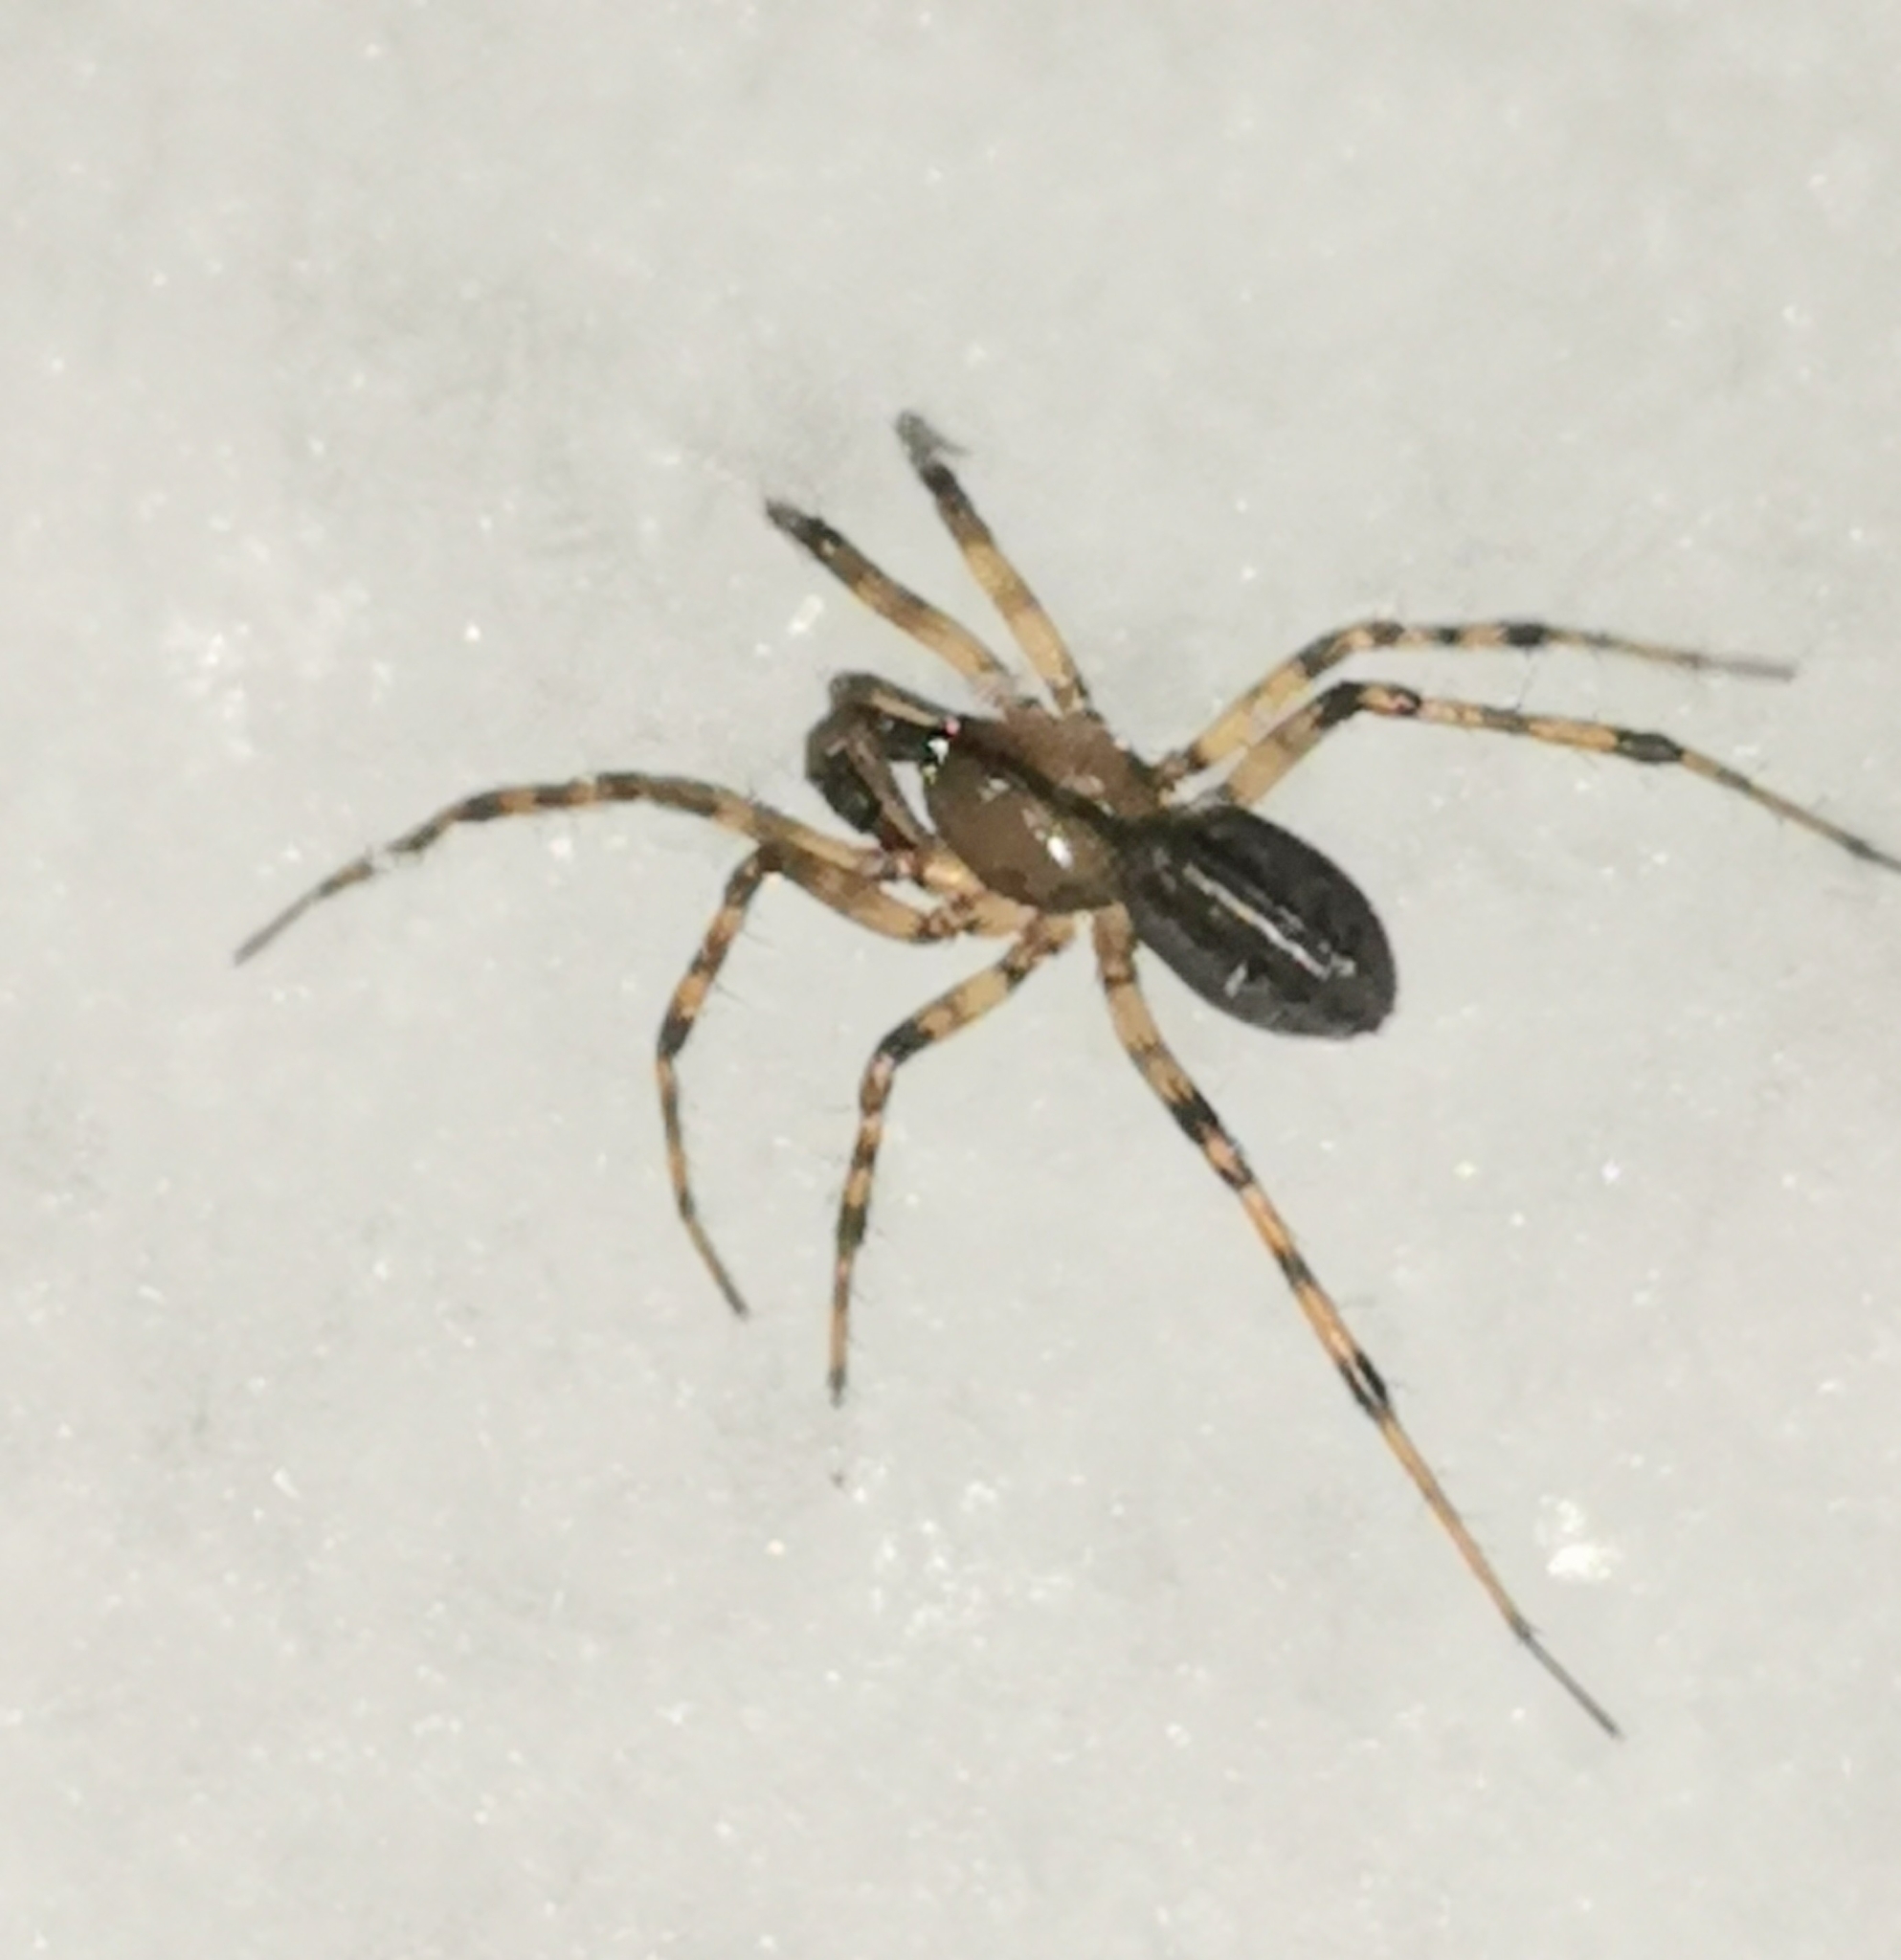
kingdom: Animalia
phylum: Arthropoda
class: Arachnida
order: Araneae
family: Linyphiidae
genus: Stemonyphantes
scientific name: Stemonyphantes lineatus
